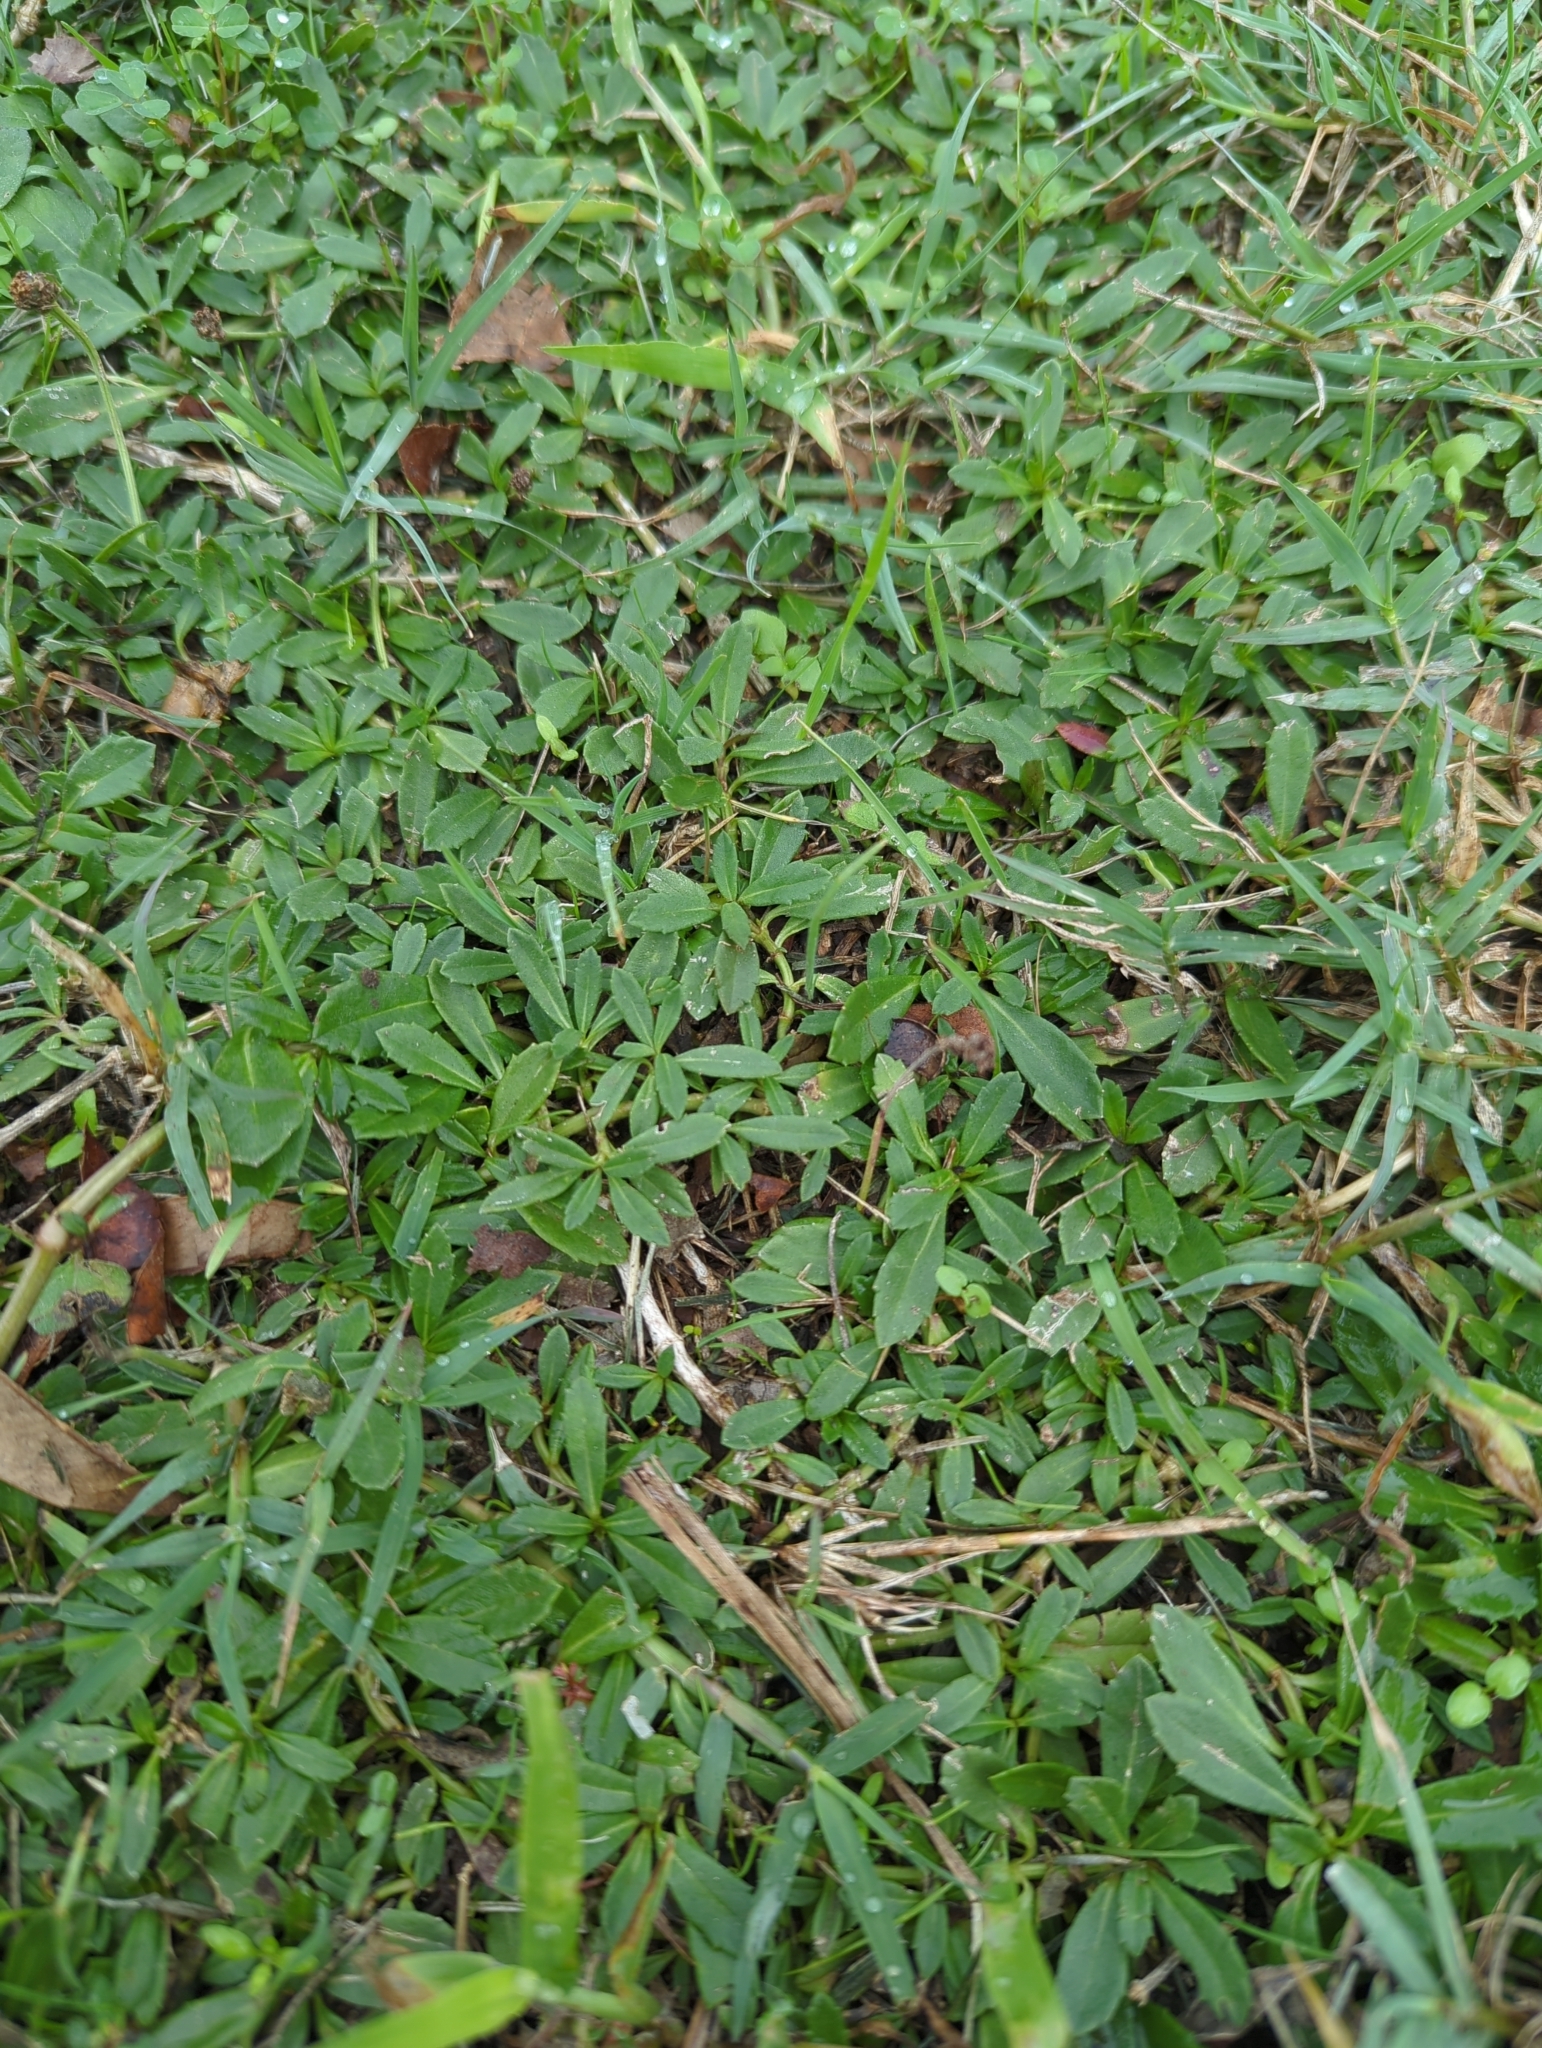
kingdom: Plantae
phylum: Tracheophyta
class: Magnoliopsida
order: Lamiales
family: Verbenaceae
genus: Phyla
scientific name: Phyla nodiflora
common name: Frogfruit
